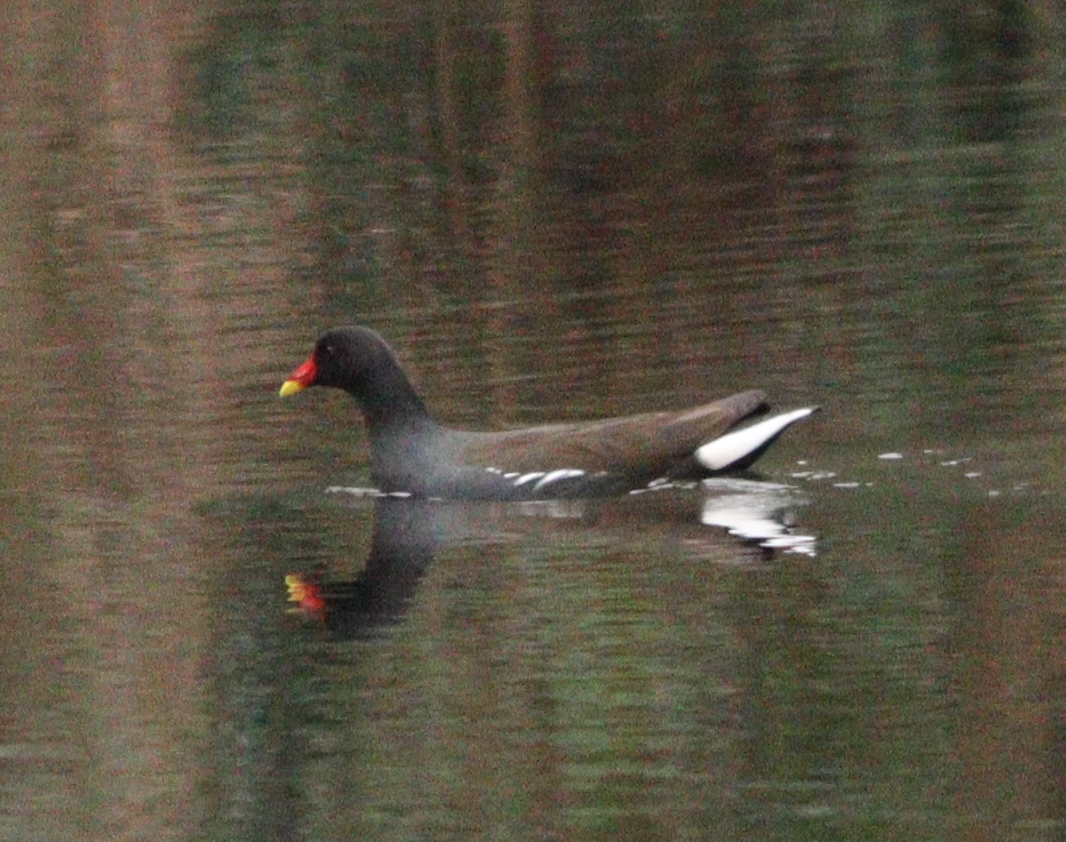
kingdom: Animalia
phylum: Chordata
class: Aves
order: Gruiformes
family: Rallidae
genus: Gallinula
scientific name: Gallinula chloropus
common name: Common moorhen
